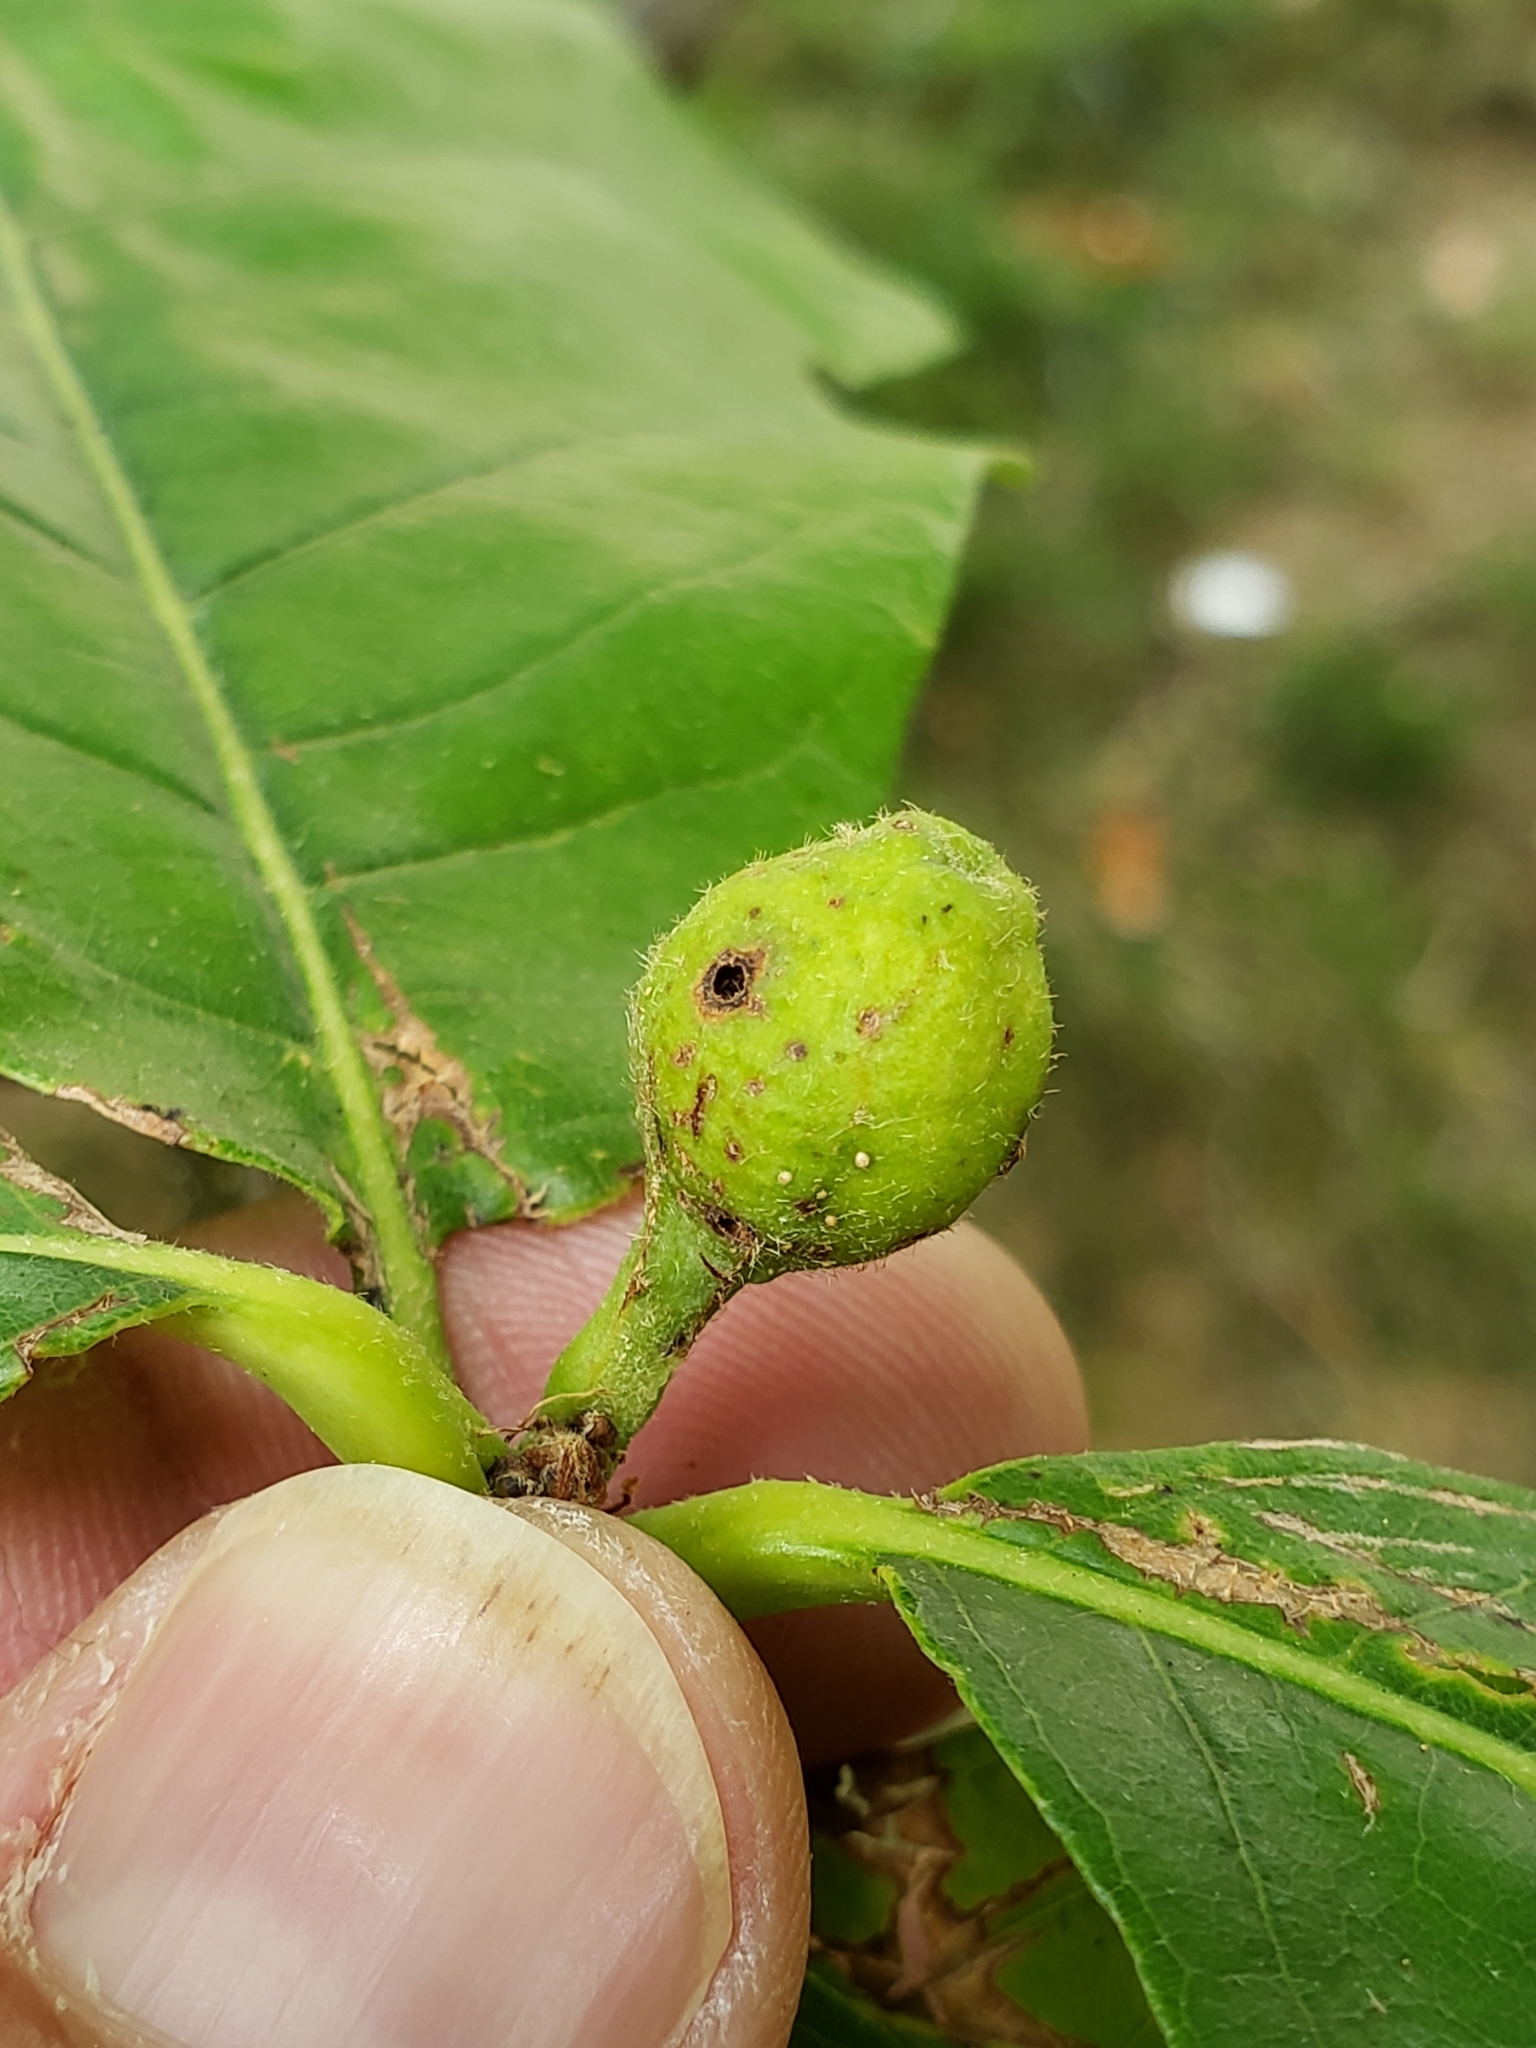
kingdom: Animalia
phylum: Arthropoda
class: Insecta
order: Hymenoptera
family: Cynipidae
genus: Andricus
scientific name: Andricus
